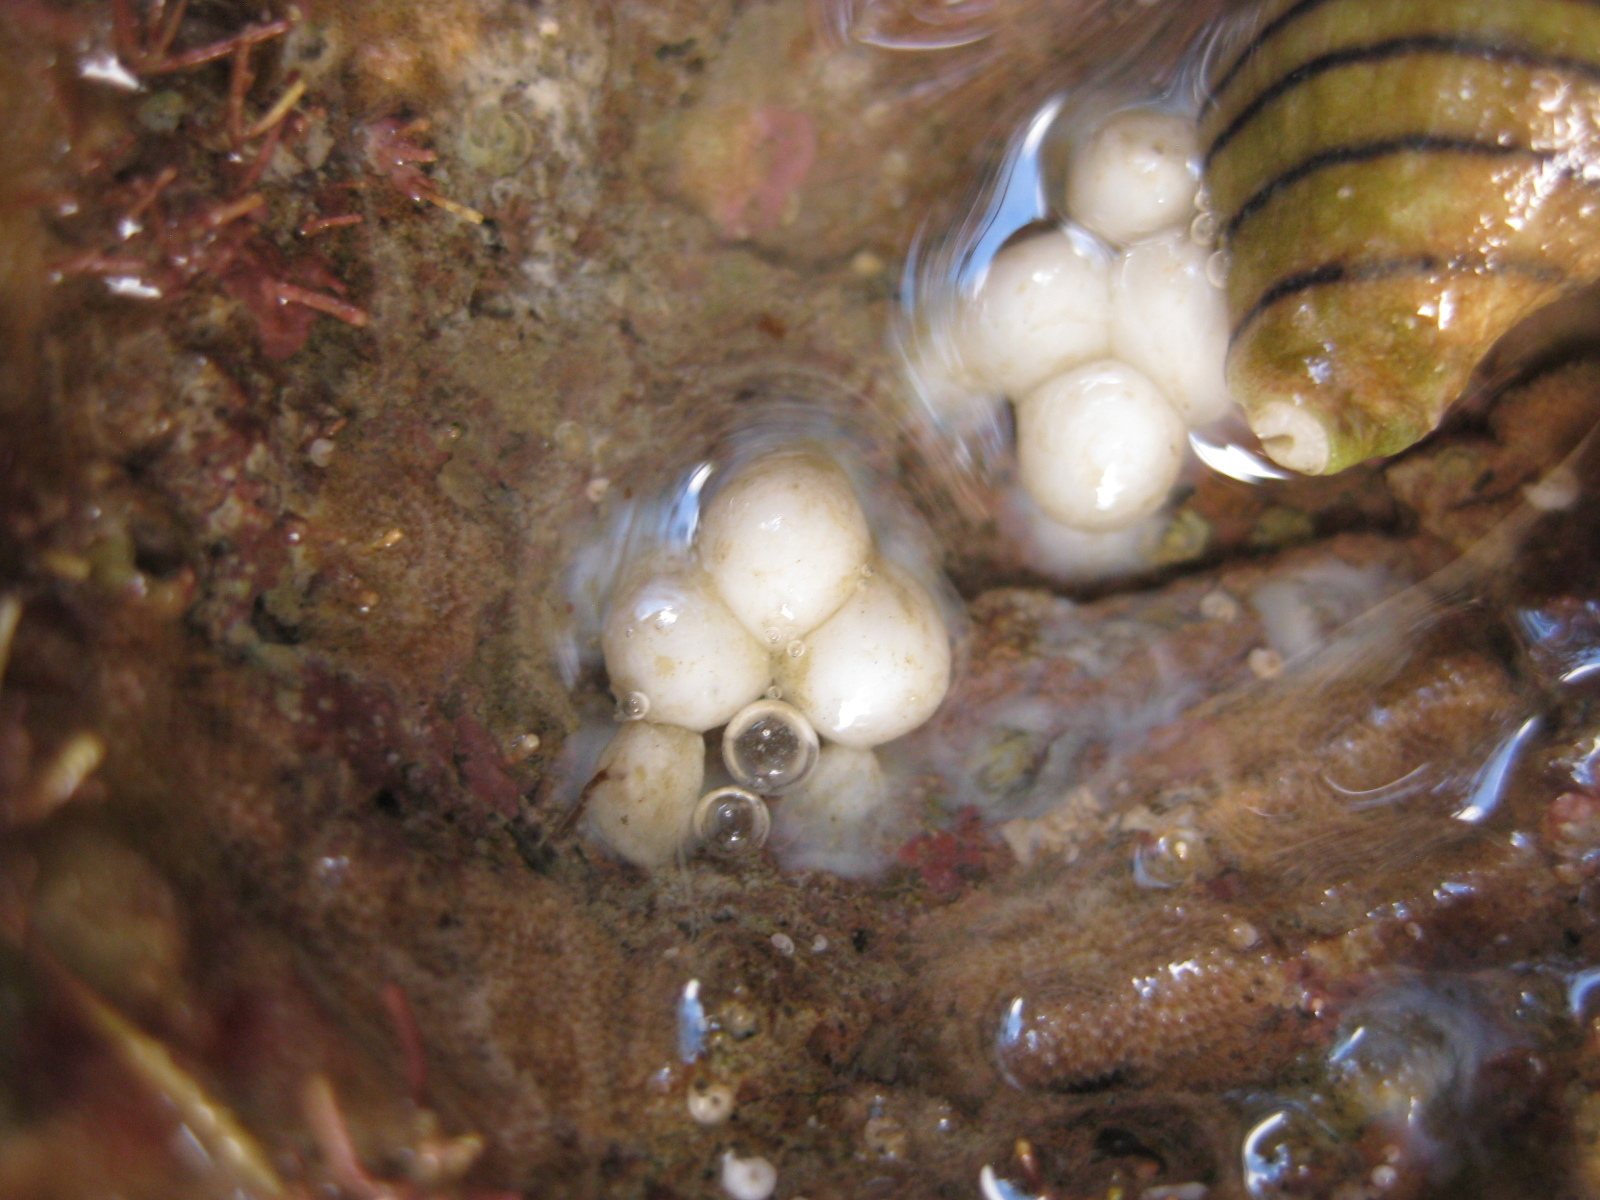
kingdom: Animalia
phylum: Mollusca
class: Cephalopoda
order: Sepiida
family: Sepiadariidae
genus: Sepioloidea
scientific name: Sepioloidea pacifica
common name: Pacific bobtail squid
